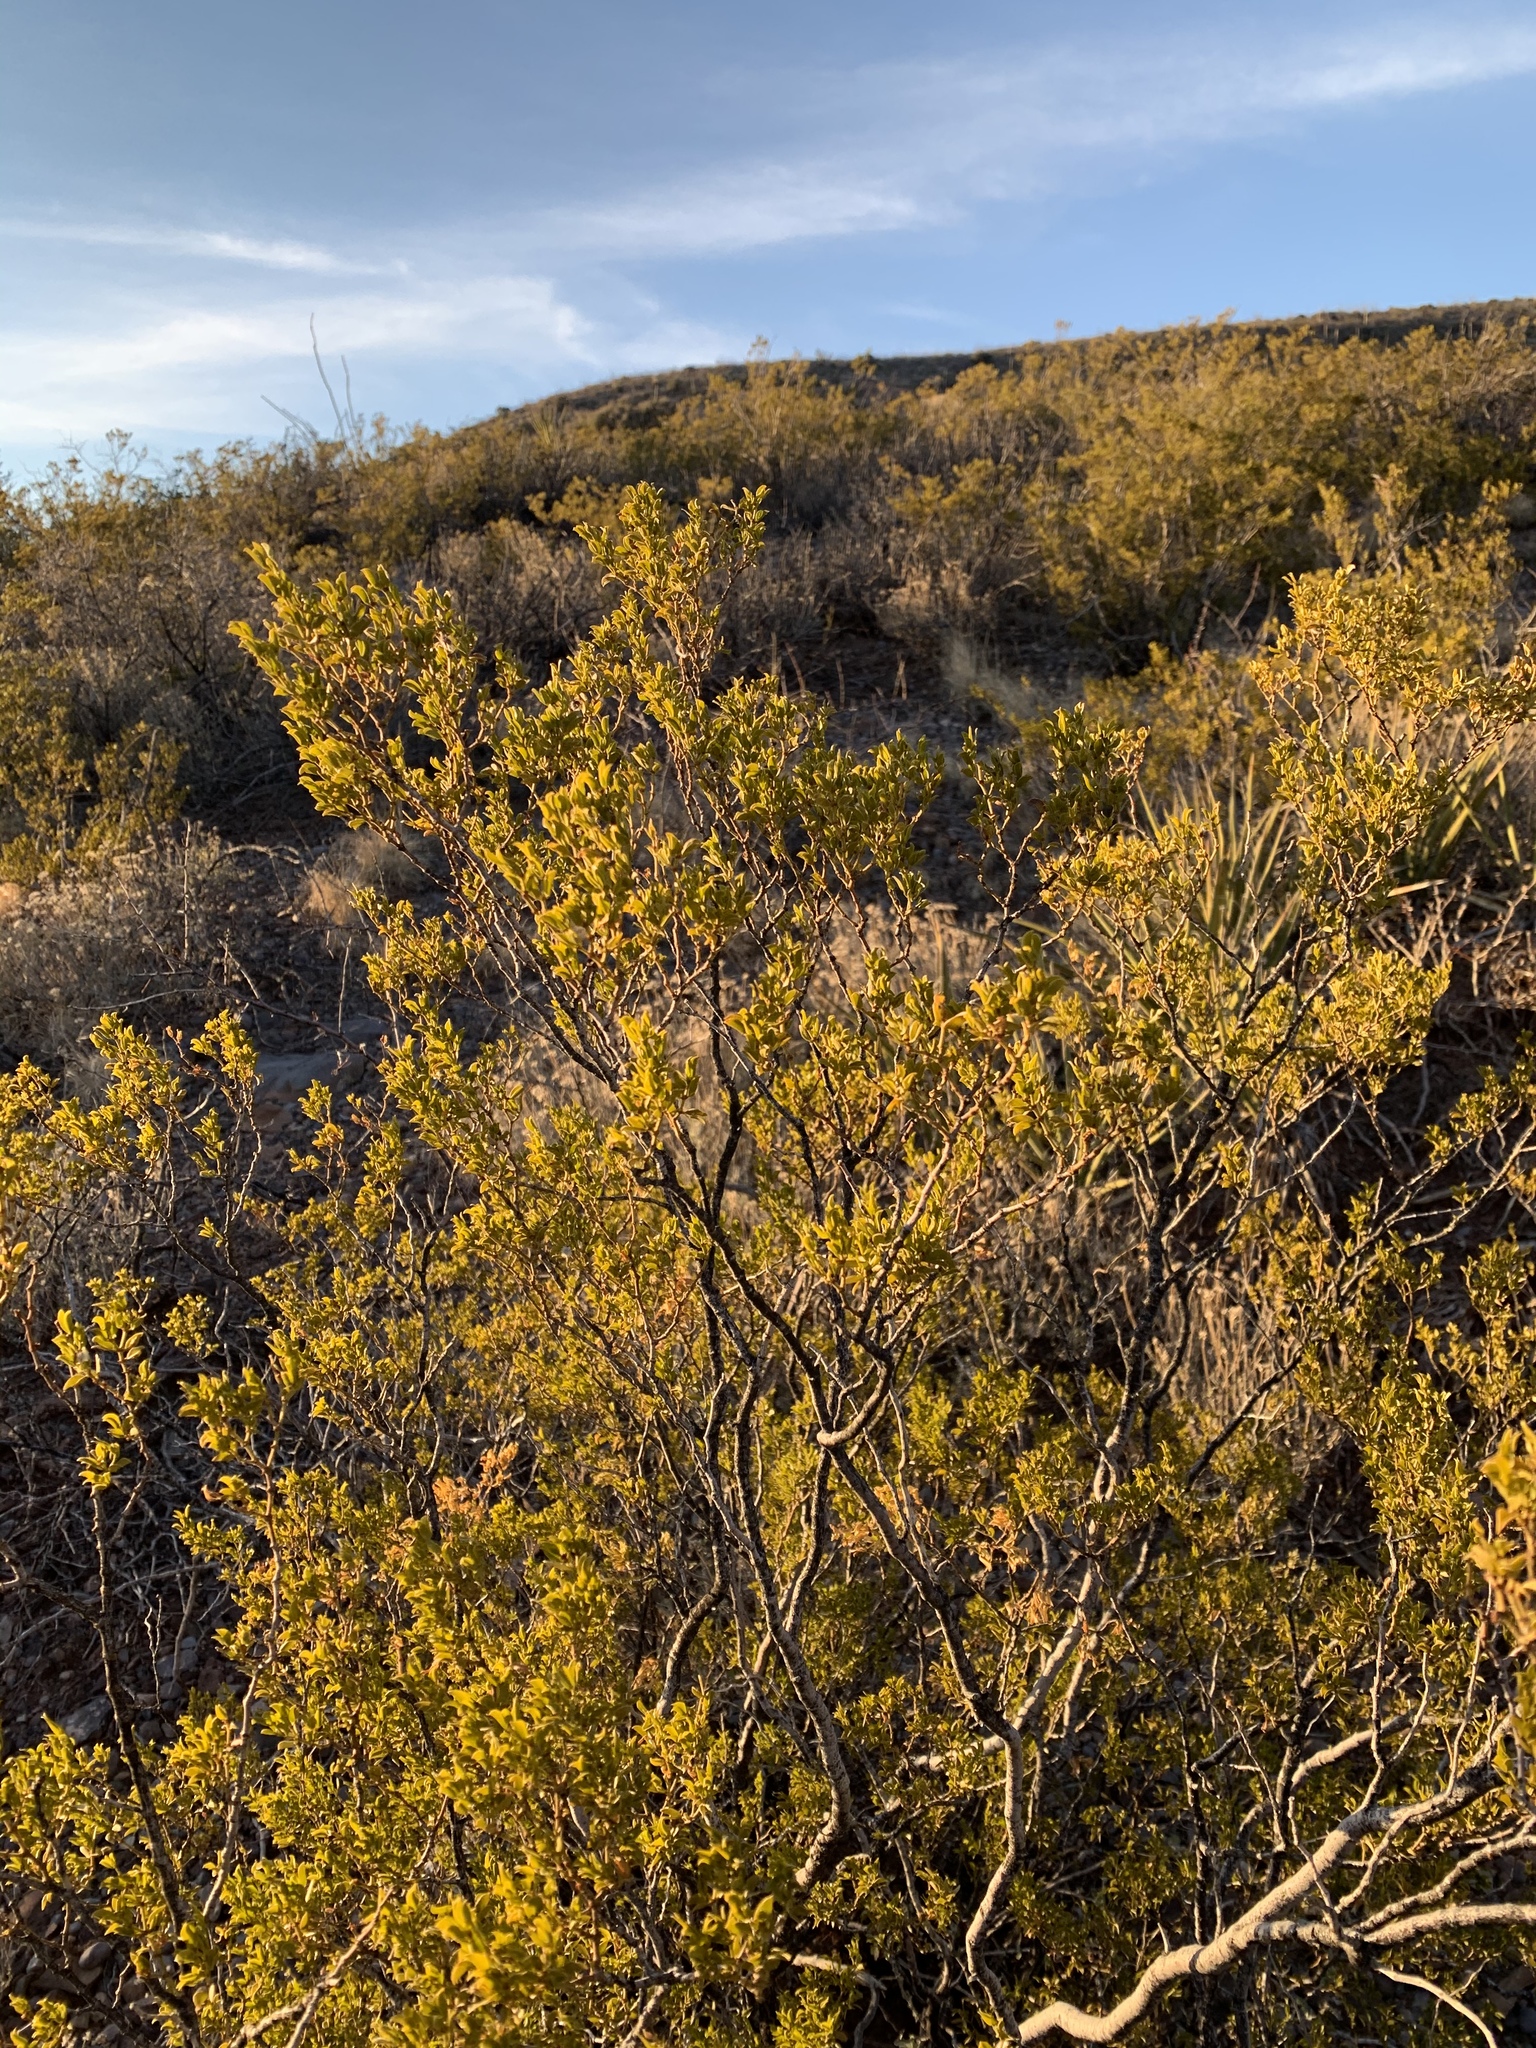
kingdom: Plantae
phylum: Tracheophyta
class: Magnoliopsida
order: Zygophyllales
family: Zygophyllaceae
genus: Larrea
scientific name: Larrea tridentata
